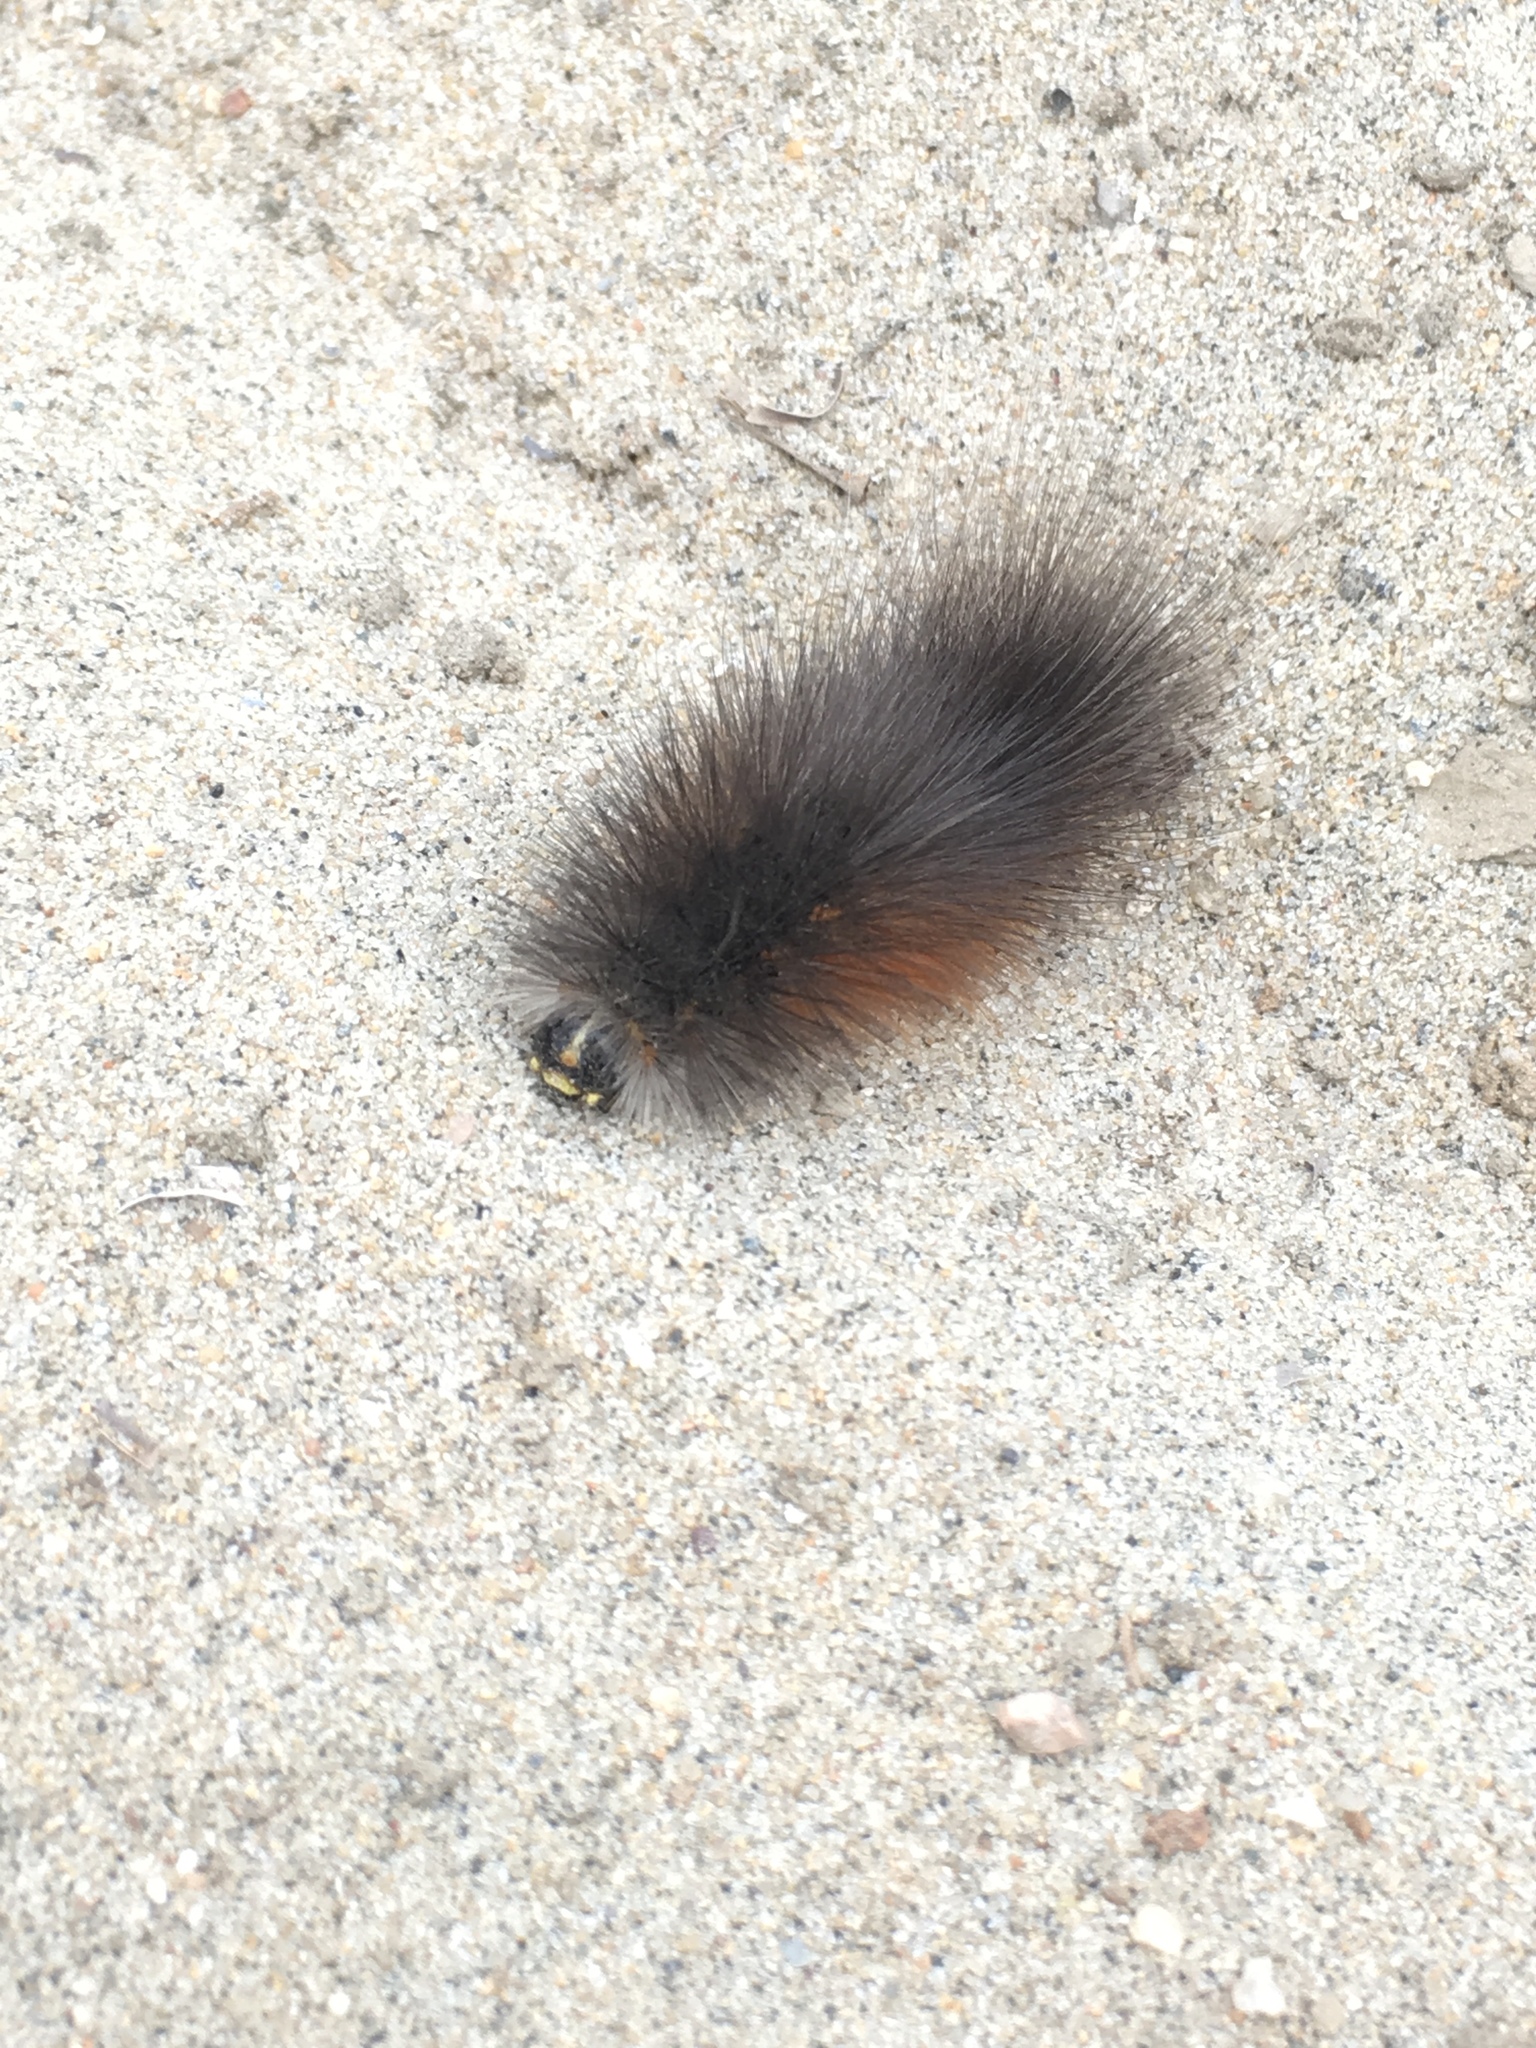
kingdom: Animalia
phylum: Arthropoda
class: Insecta
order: Lepidoptera
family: Erebidae
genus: Estigmene
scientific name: Estigmene acrea
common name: Salt marsh moth
